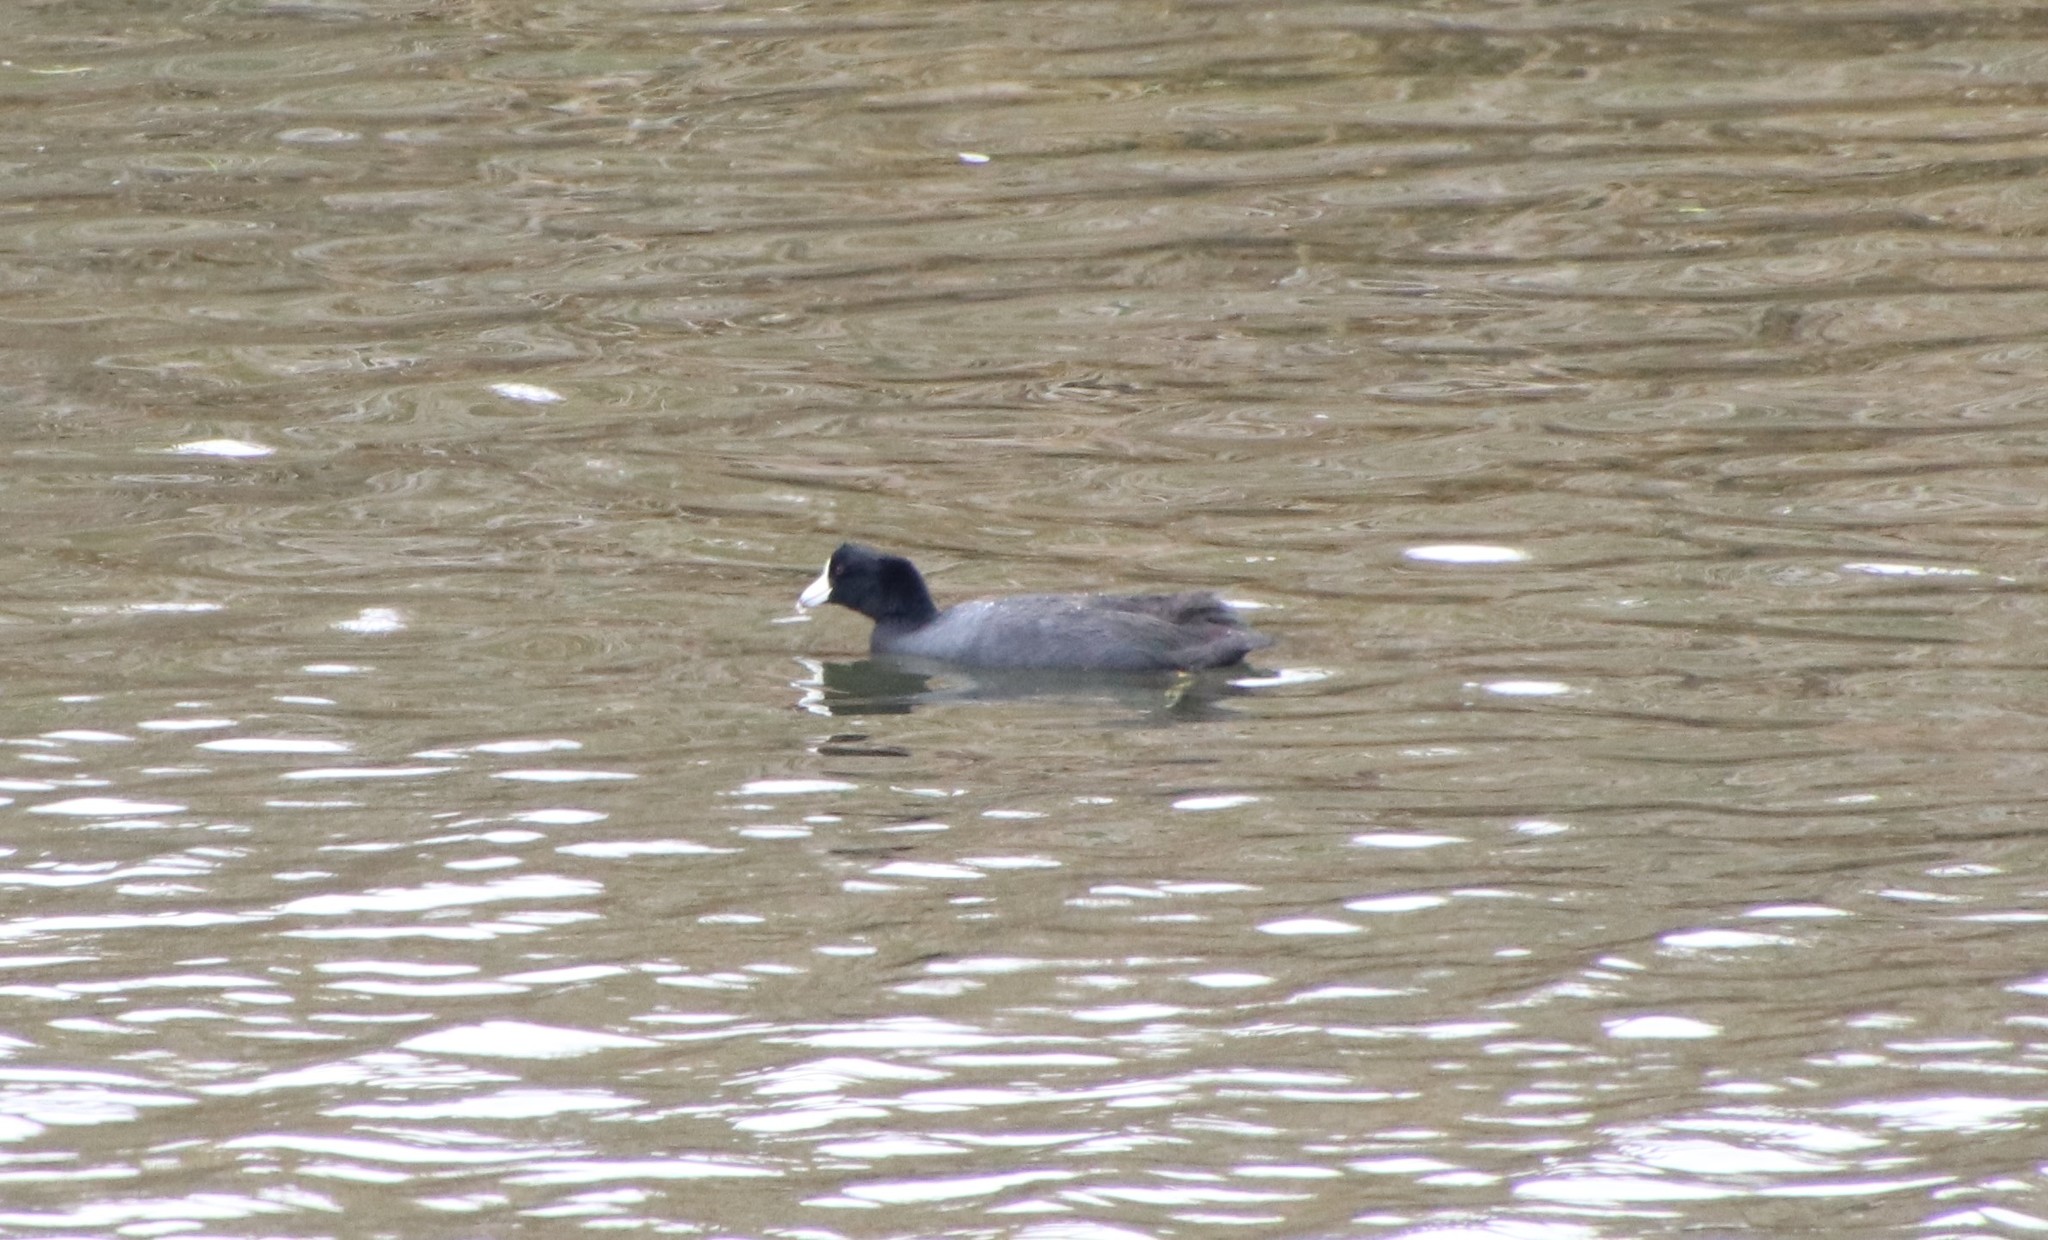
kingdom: Animalia
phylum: Chordata
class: Aves
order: Gruiformes
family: Rallidae
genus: Fulica
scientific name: Fulica americana
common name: American coot
